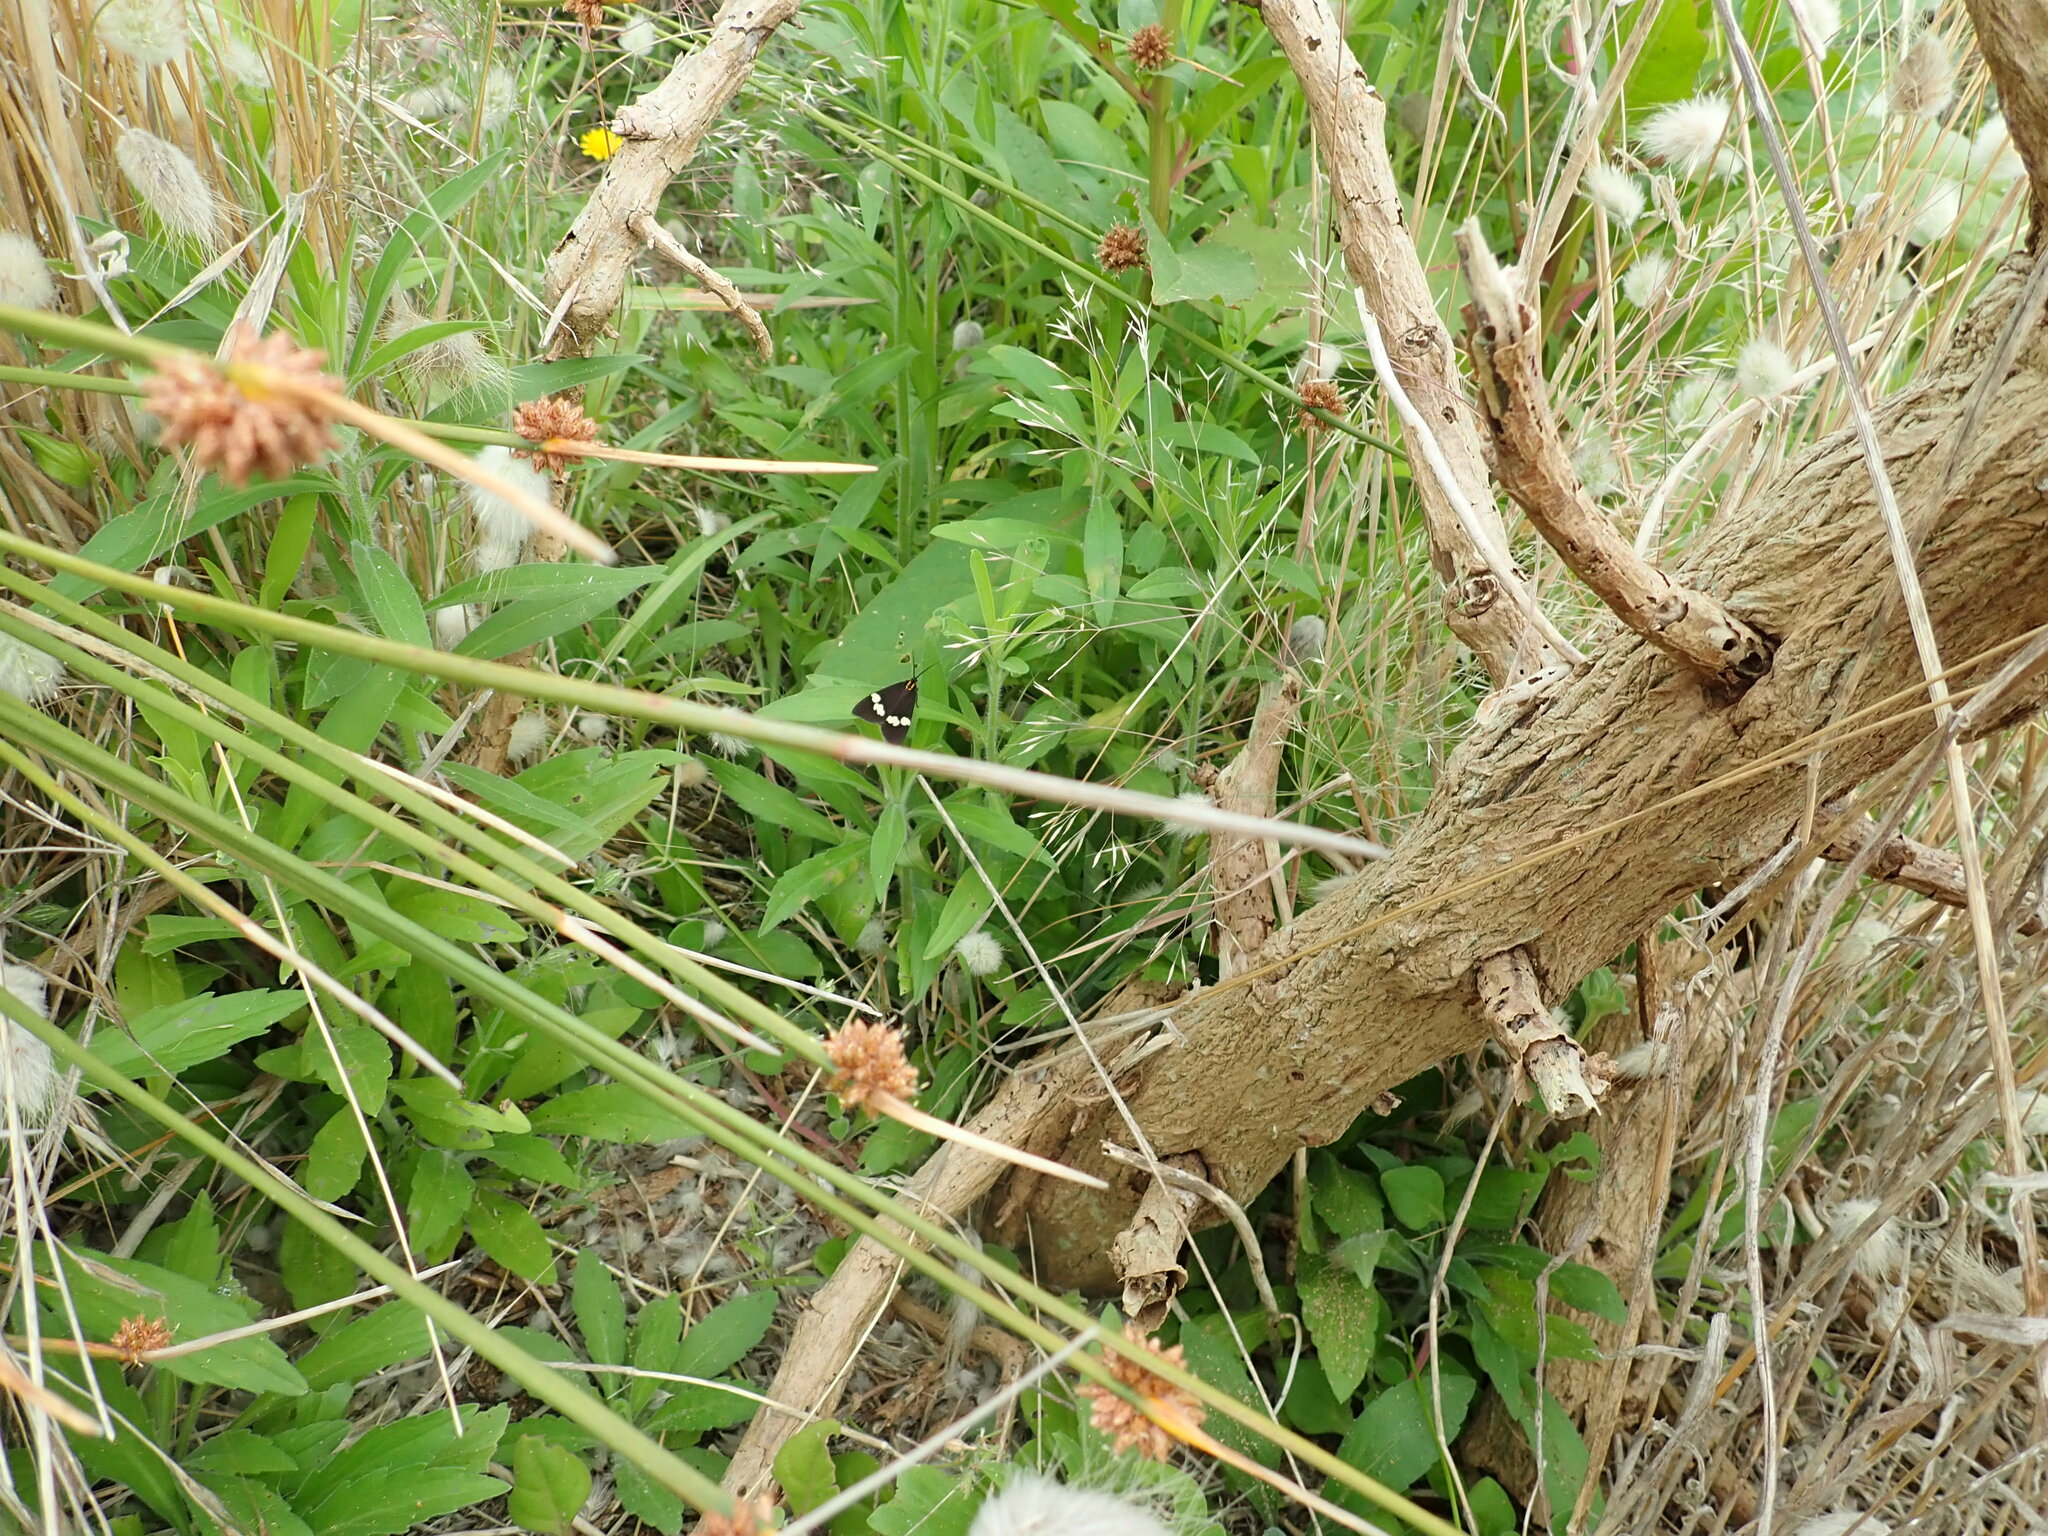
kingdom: Animalia
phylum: Arthropoda
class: Insecta
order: Lepidoptera
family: Erebidae
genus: Nyctemera
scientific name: Nyctemera annulatum
